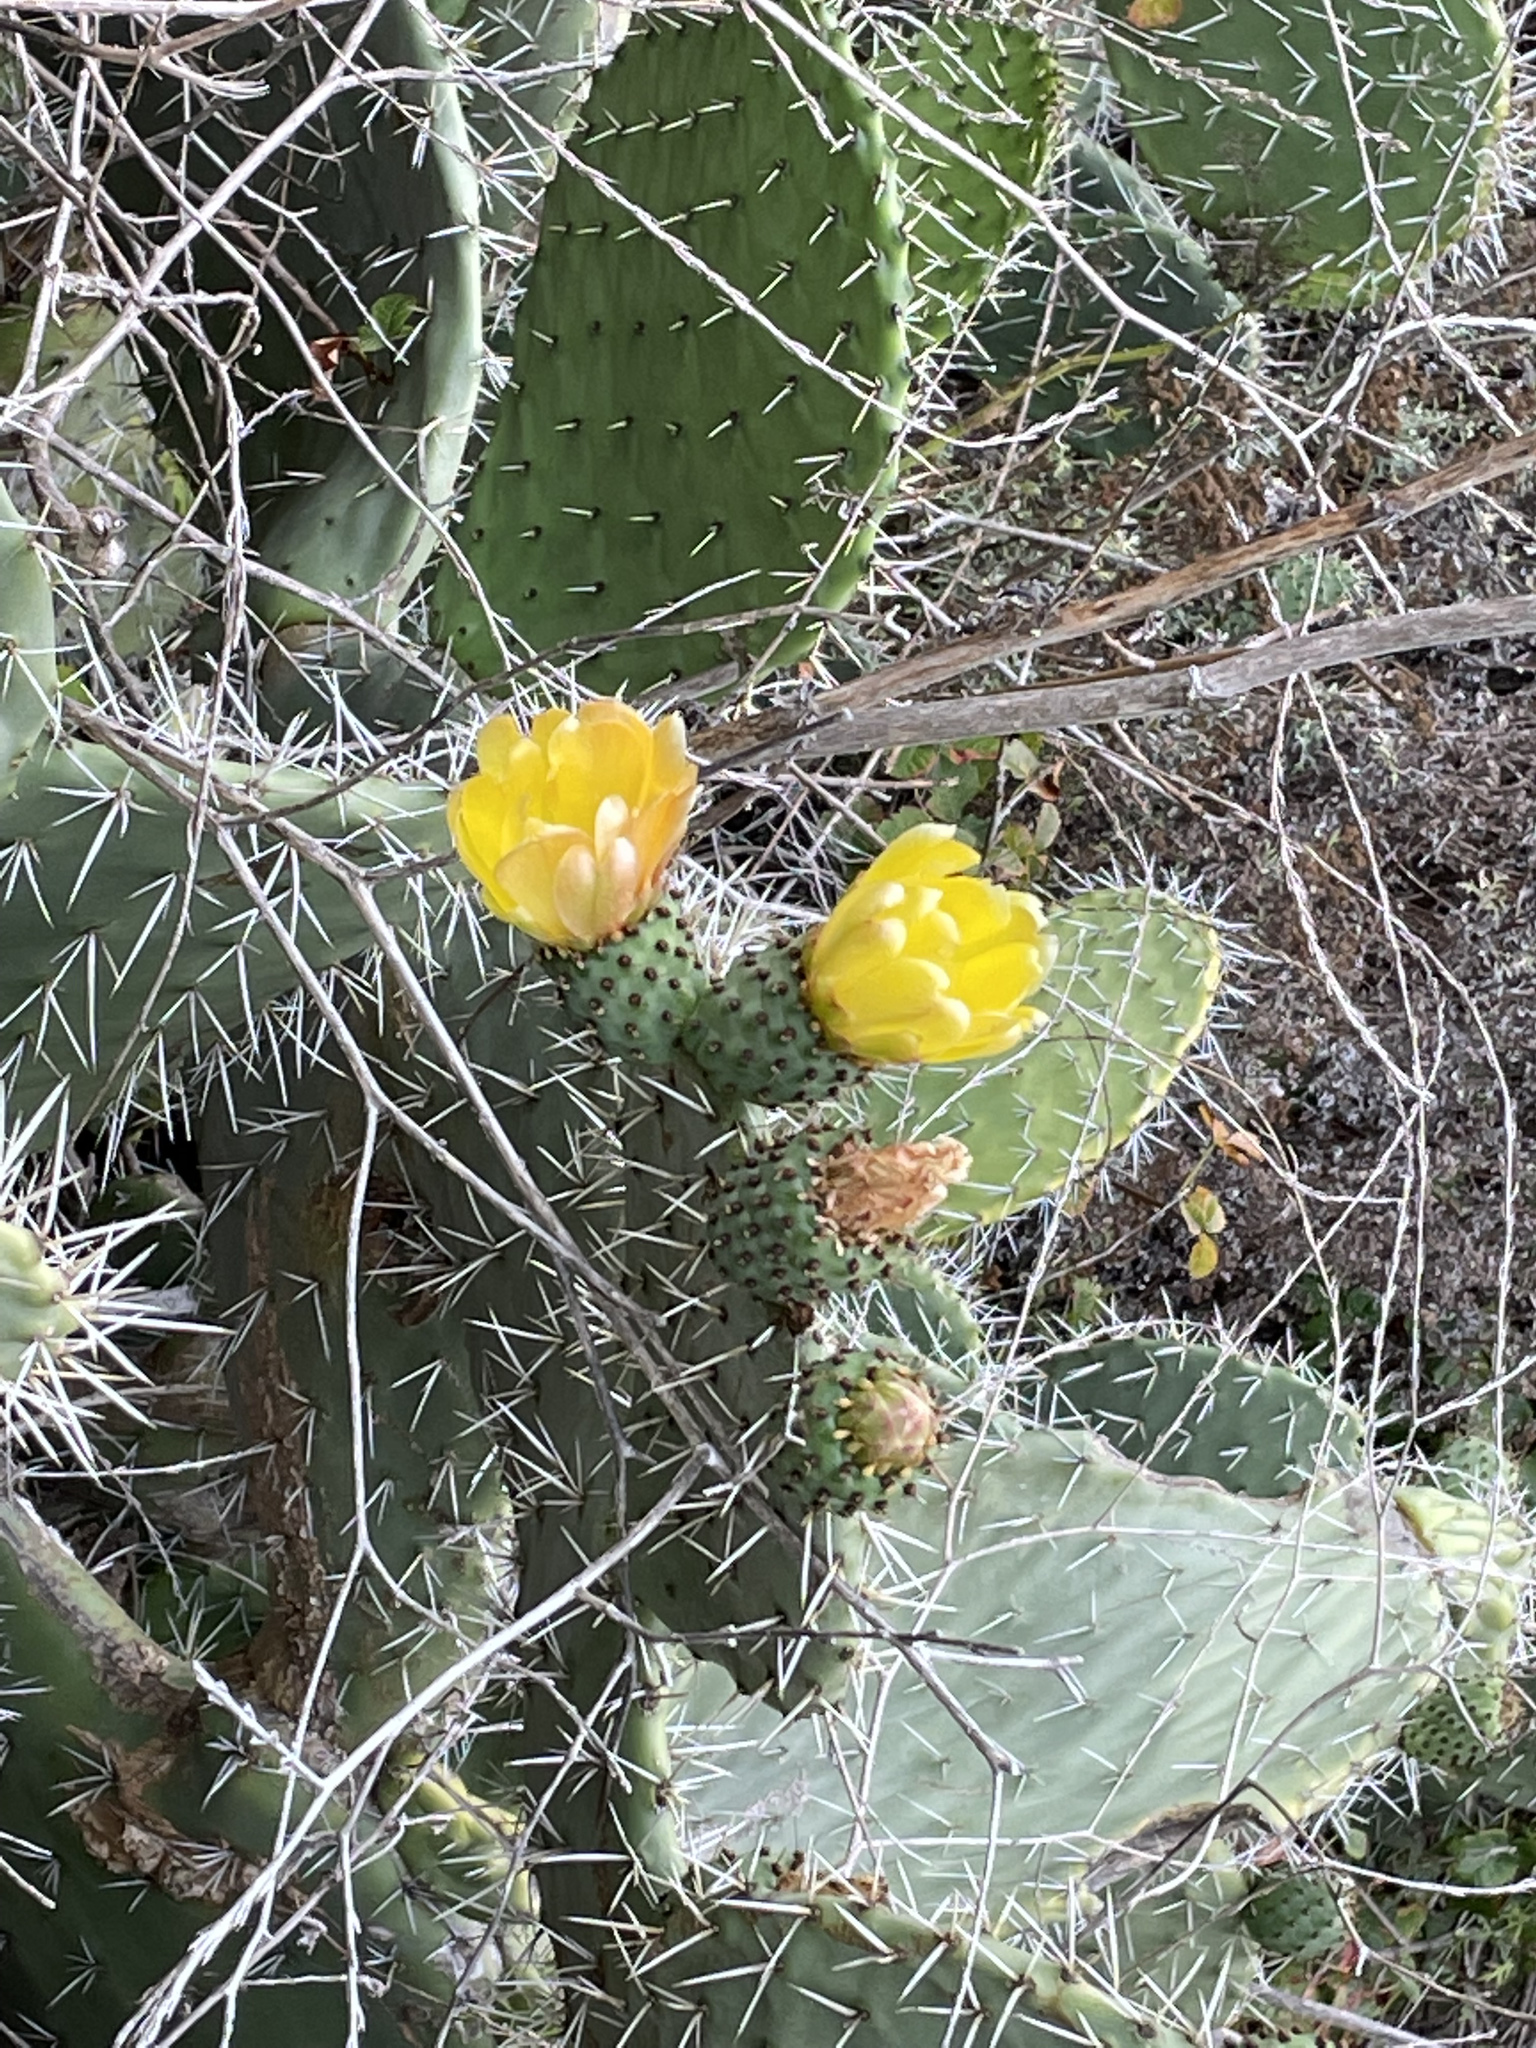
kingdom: Plantae
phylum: Tracheophyta
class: Magnoliopsida
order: Caryophyllales
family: Cactaceae
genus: Opuntia
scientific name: Opuntia ficus-indica
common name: Barbary fig
